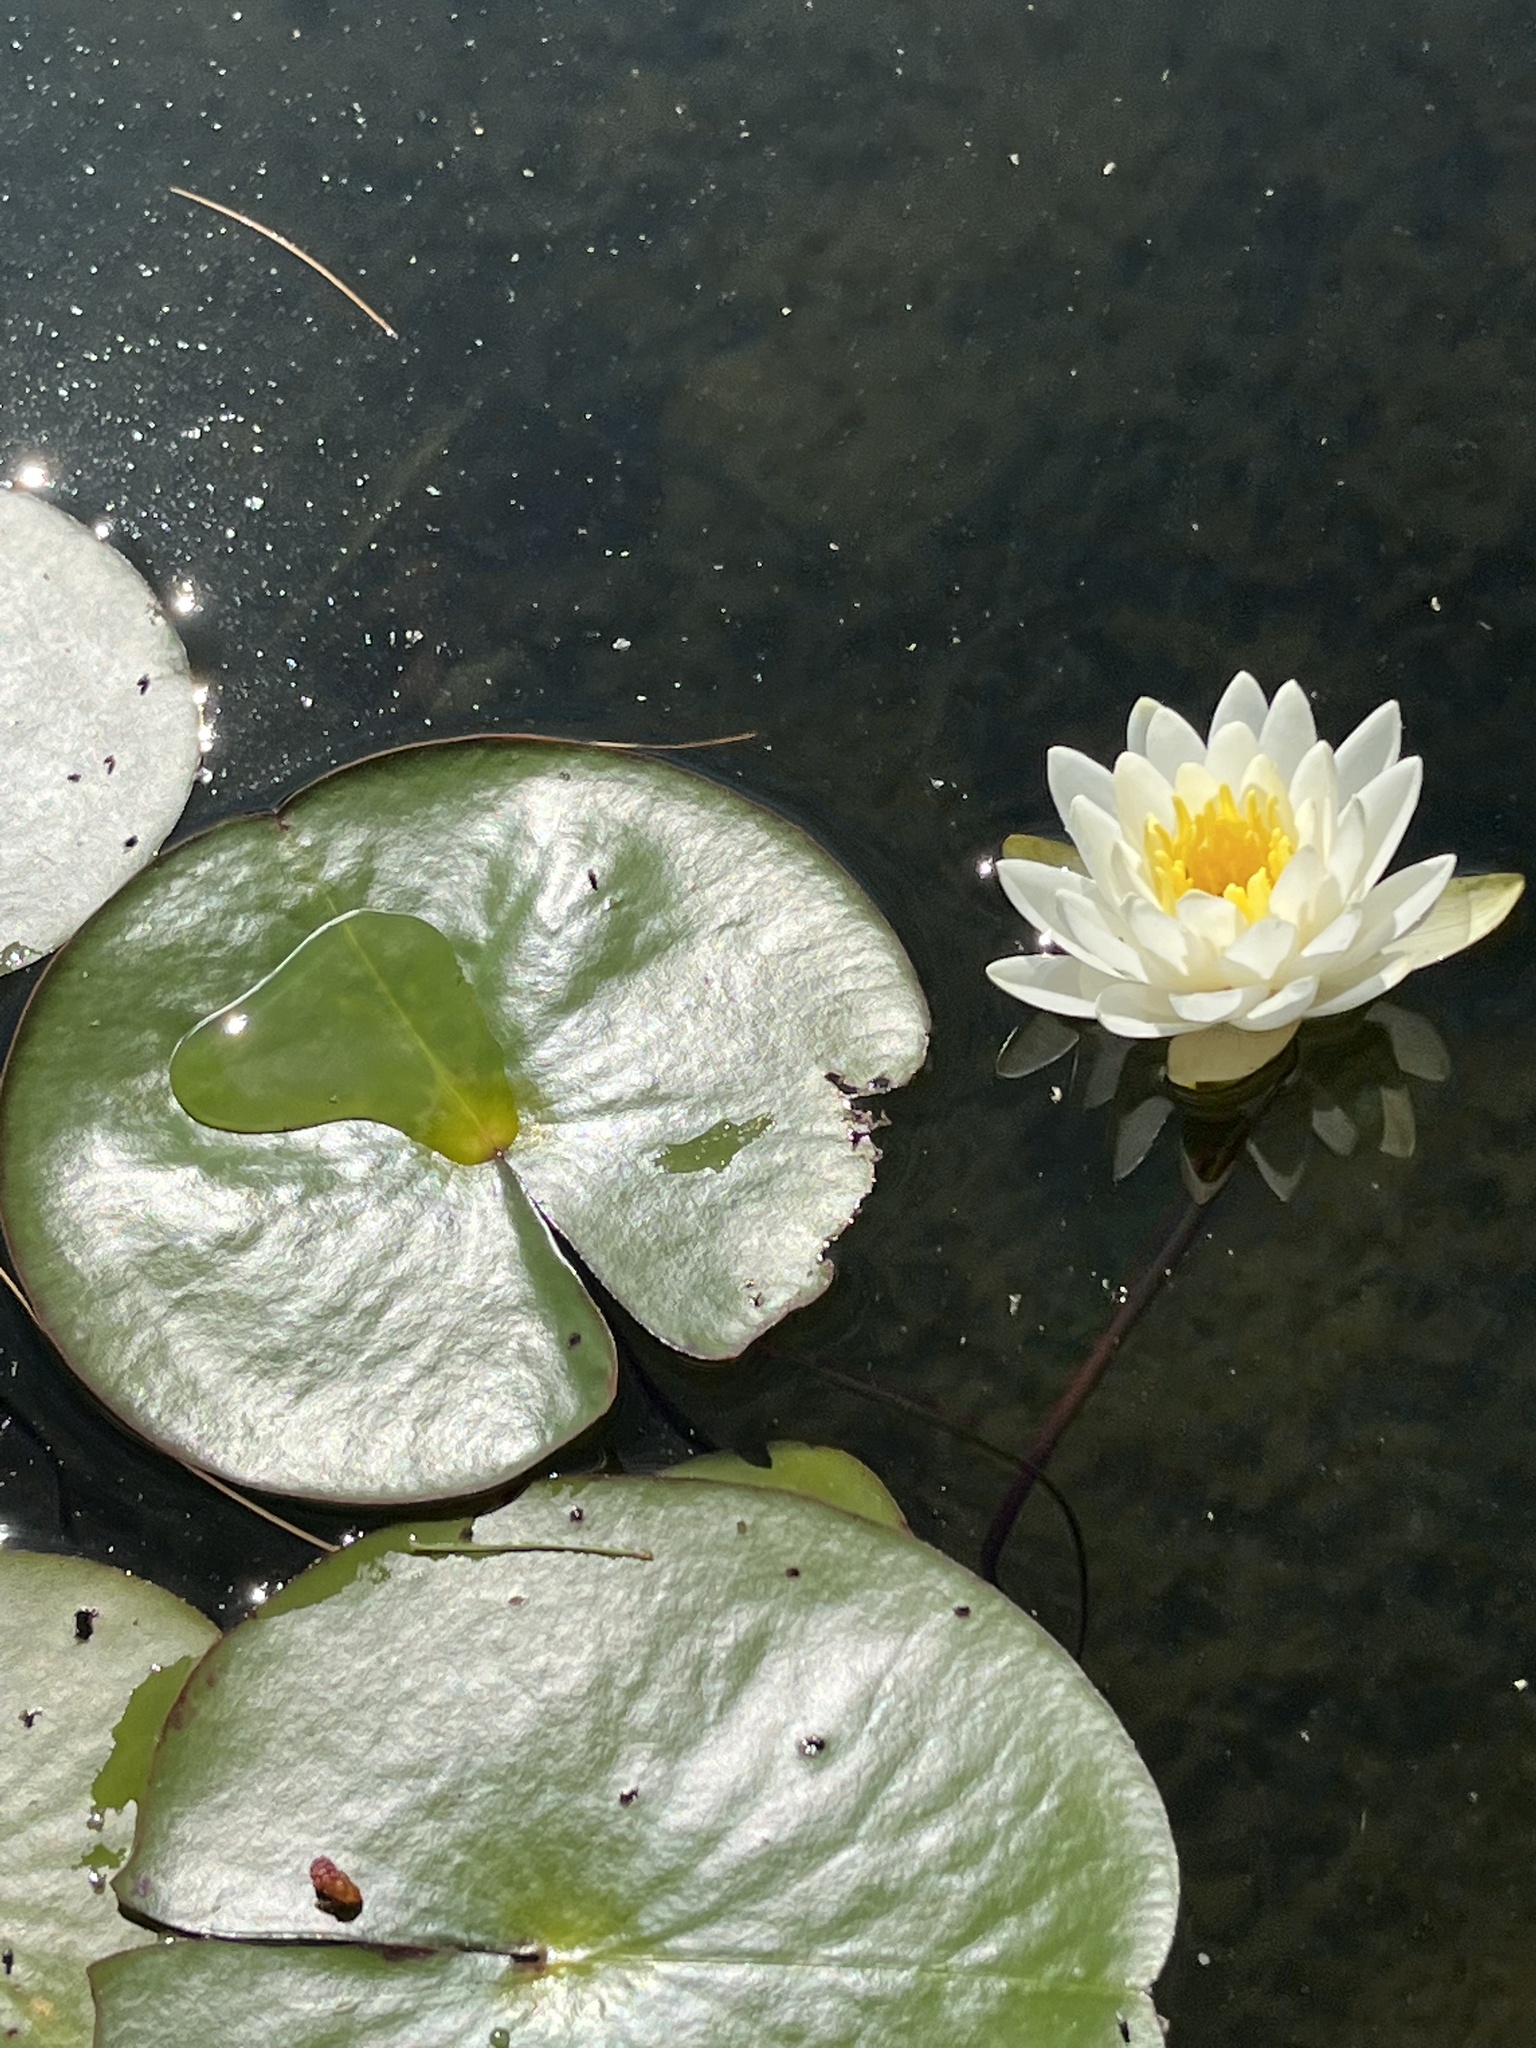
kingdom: Plantae
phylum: Tracheophyta
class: Magnoliopsida
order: Nymphaeales
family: Nymphaeaceae
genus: Nymphaea
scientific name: Nymphaea odorata
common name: Fragrant water-lily
